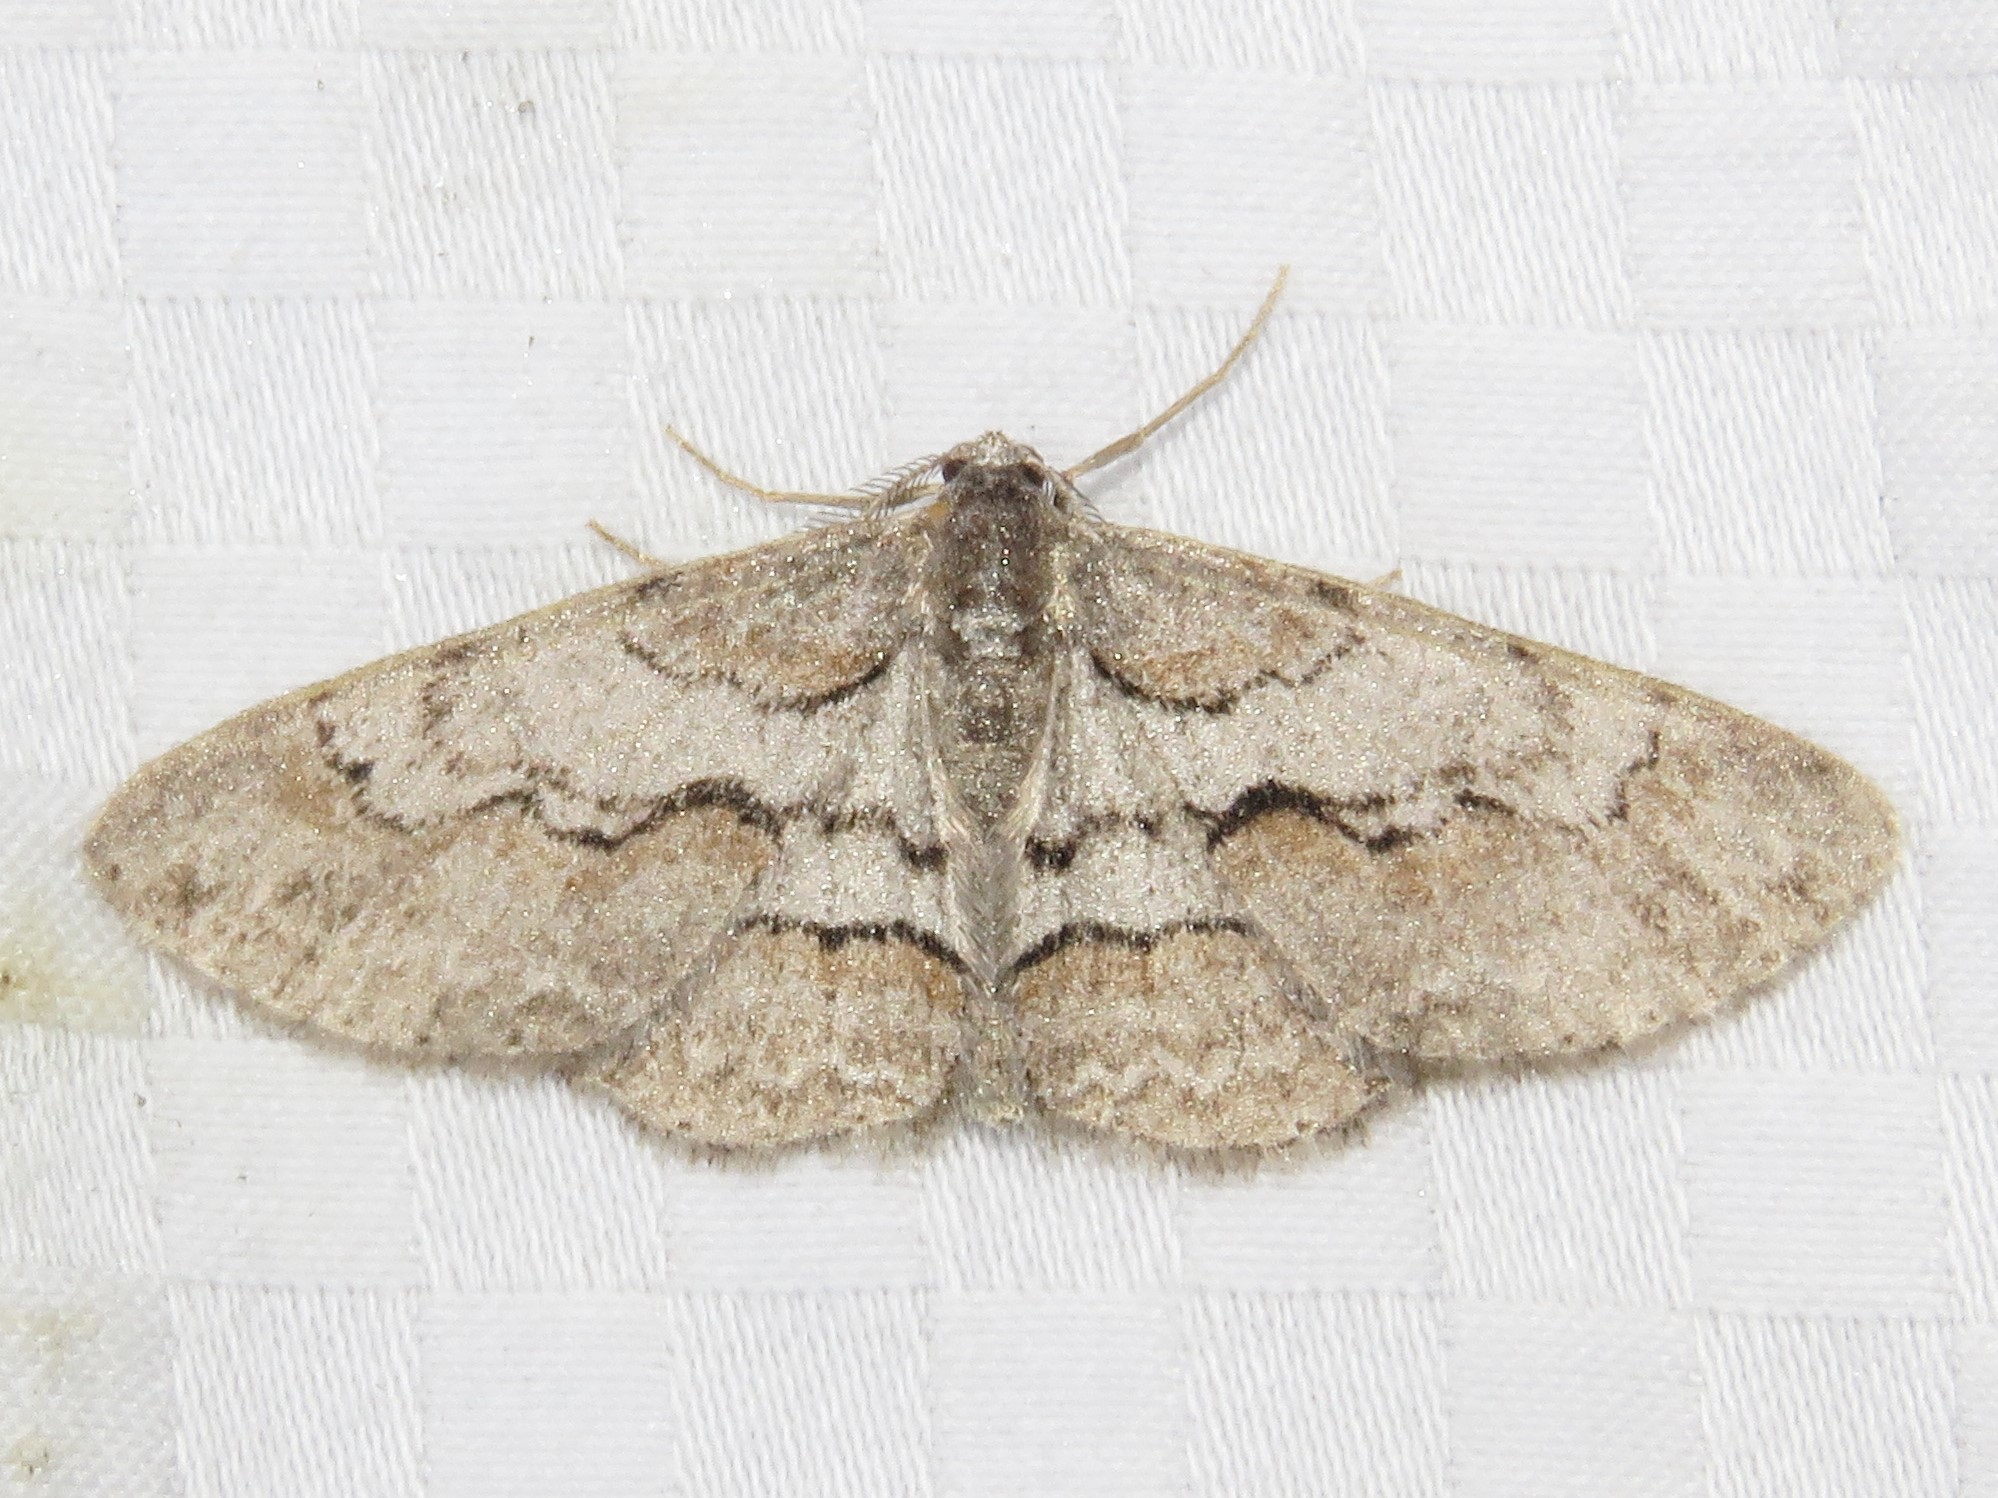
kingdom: Animalia
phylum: Arthropoda
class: Insecta
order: Lepidoptera
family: Geometridae
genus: Iridopsis
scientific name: Iridopsis vellivolata
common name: Large purplish gray
